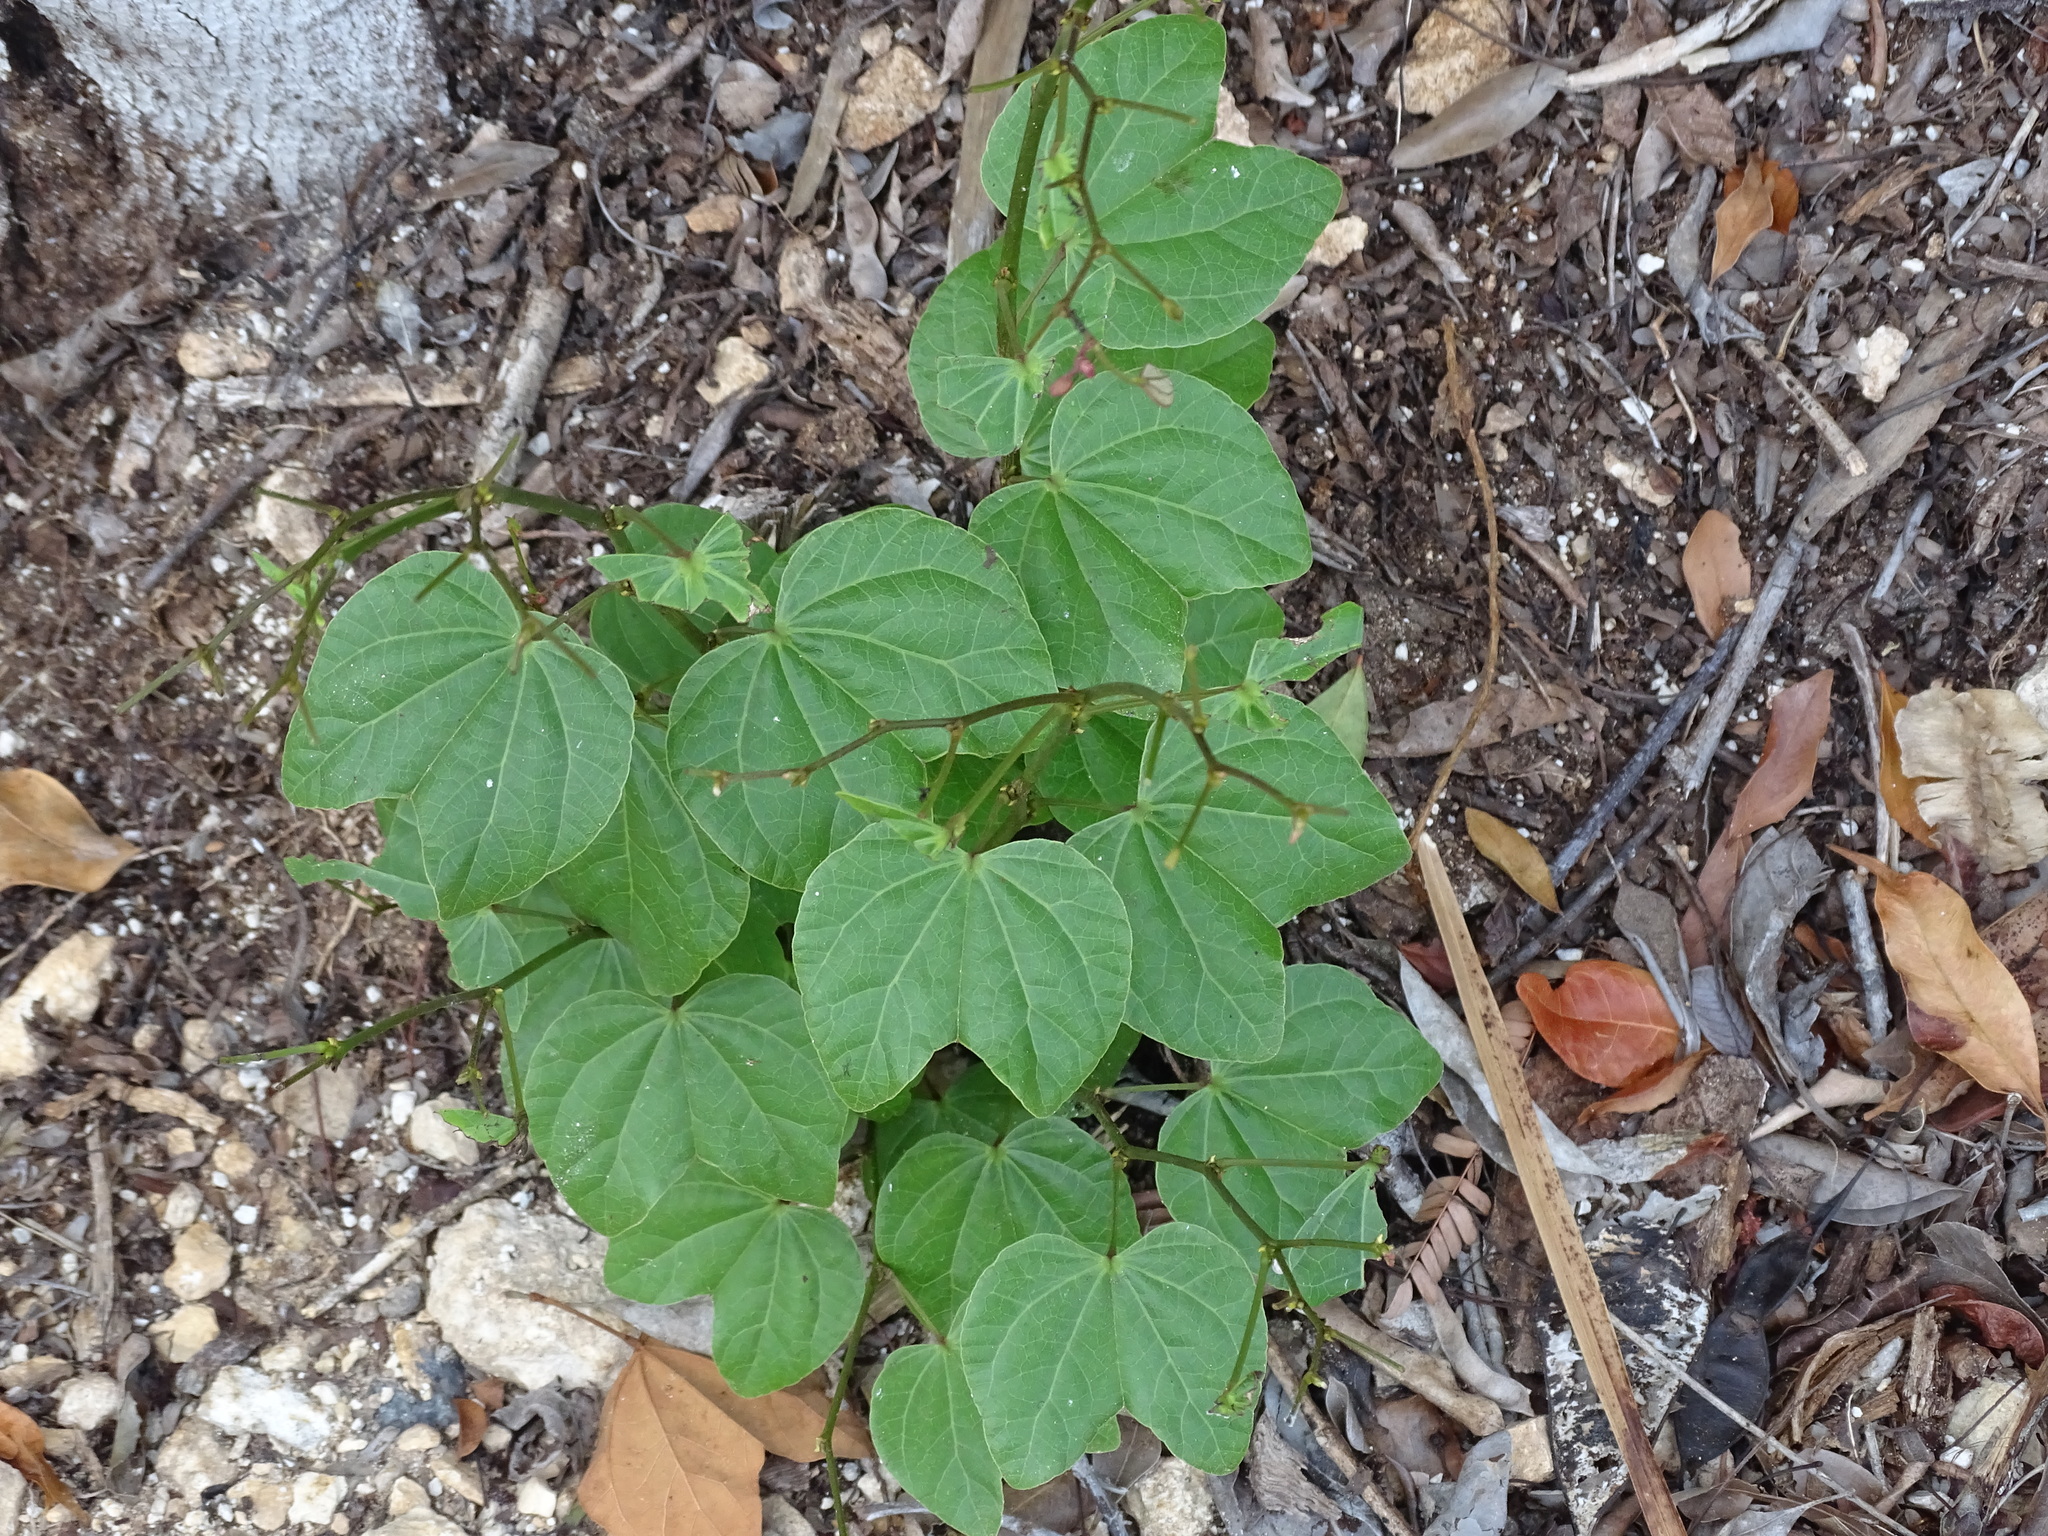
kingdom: Plantae
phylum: Tracheophyta
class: Magnoliopsida
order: Fabales
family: Fabaceae
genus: Bauhinia
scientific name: Bauhinia divaricata
